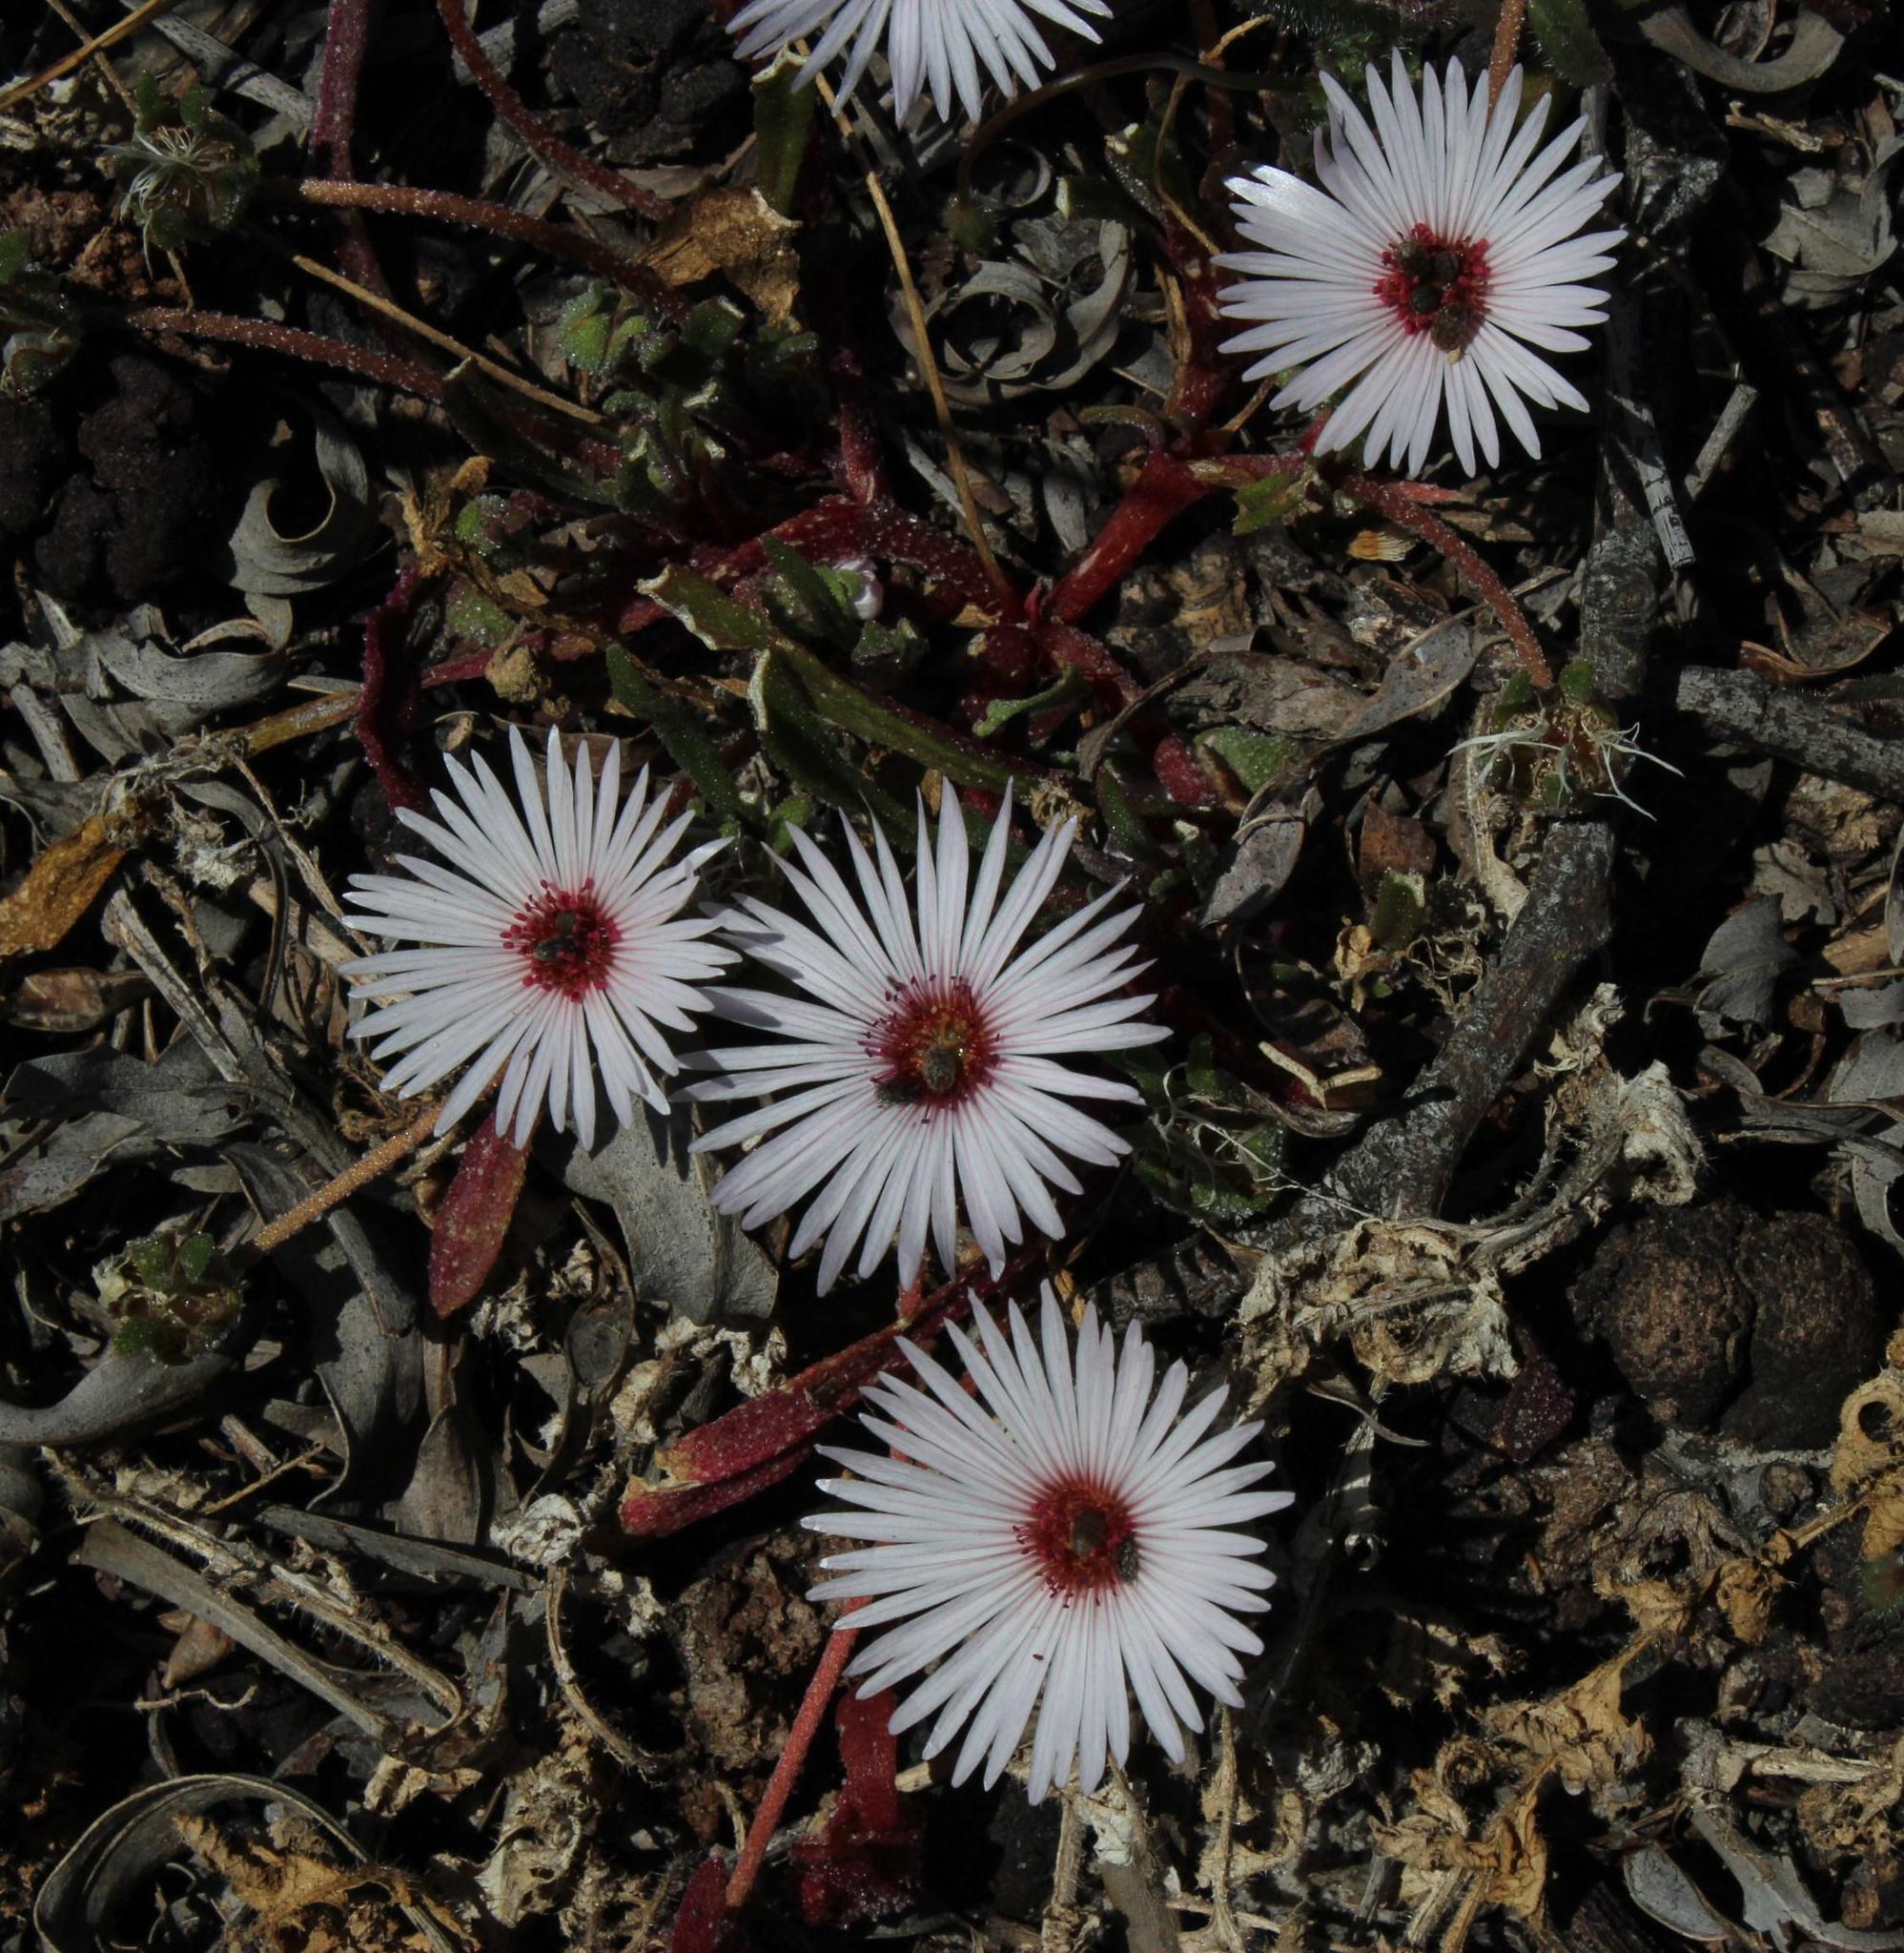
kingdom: Plantae
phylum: Tracheophyta
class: Magnoliopsida
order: Caryophyllales
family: Aizoaceae
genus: Cleretum
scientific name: Cleretum bellidiforme
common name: Livingstone daisy
